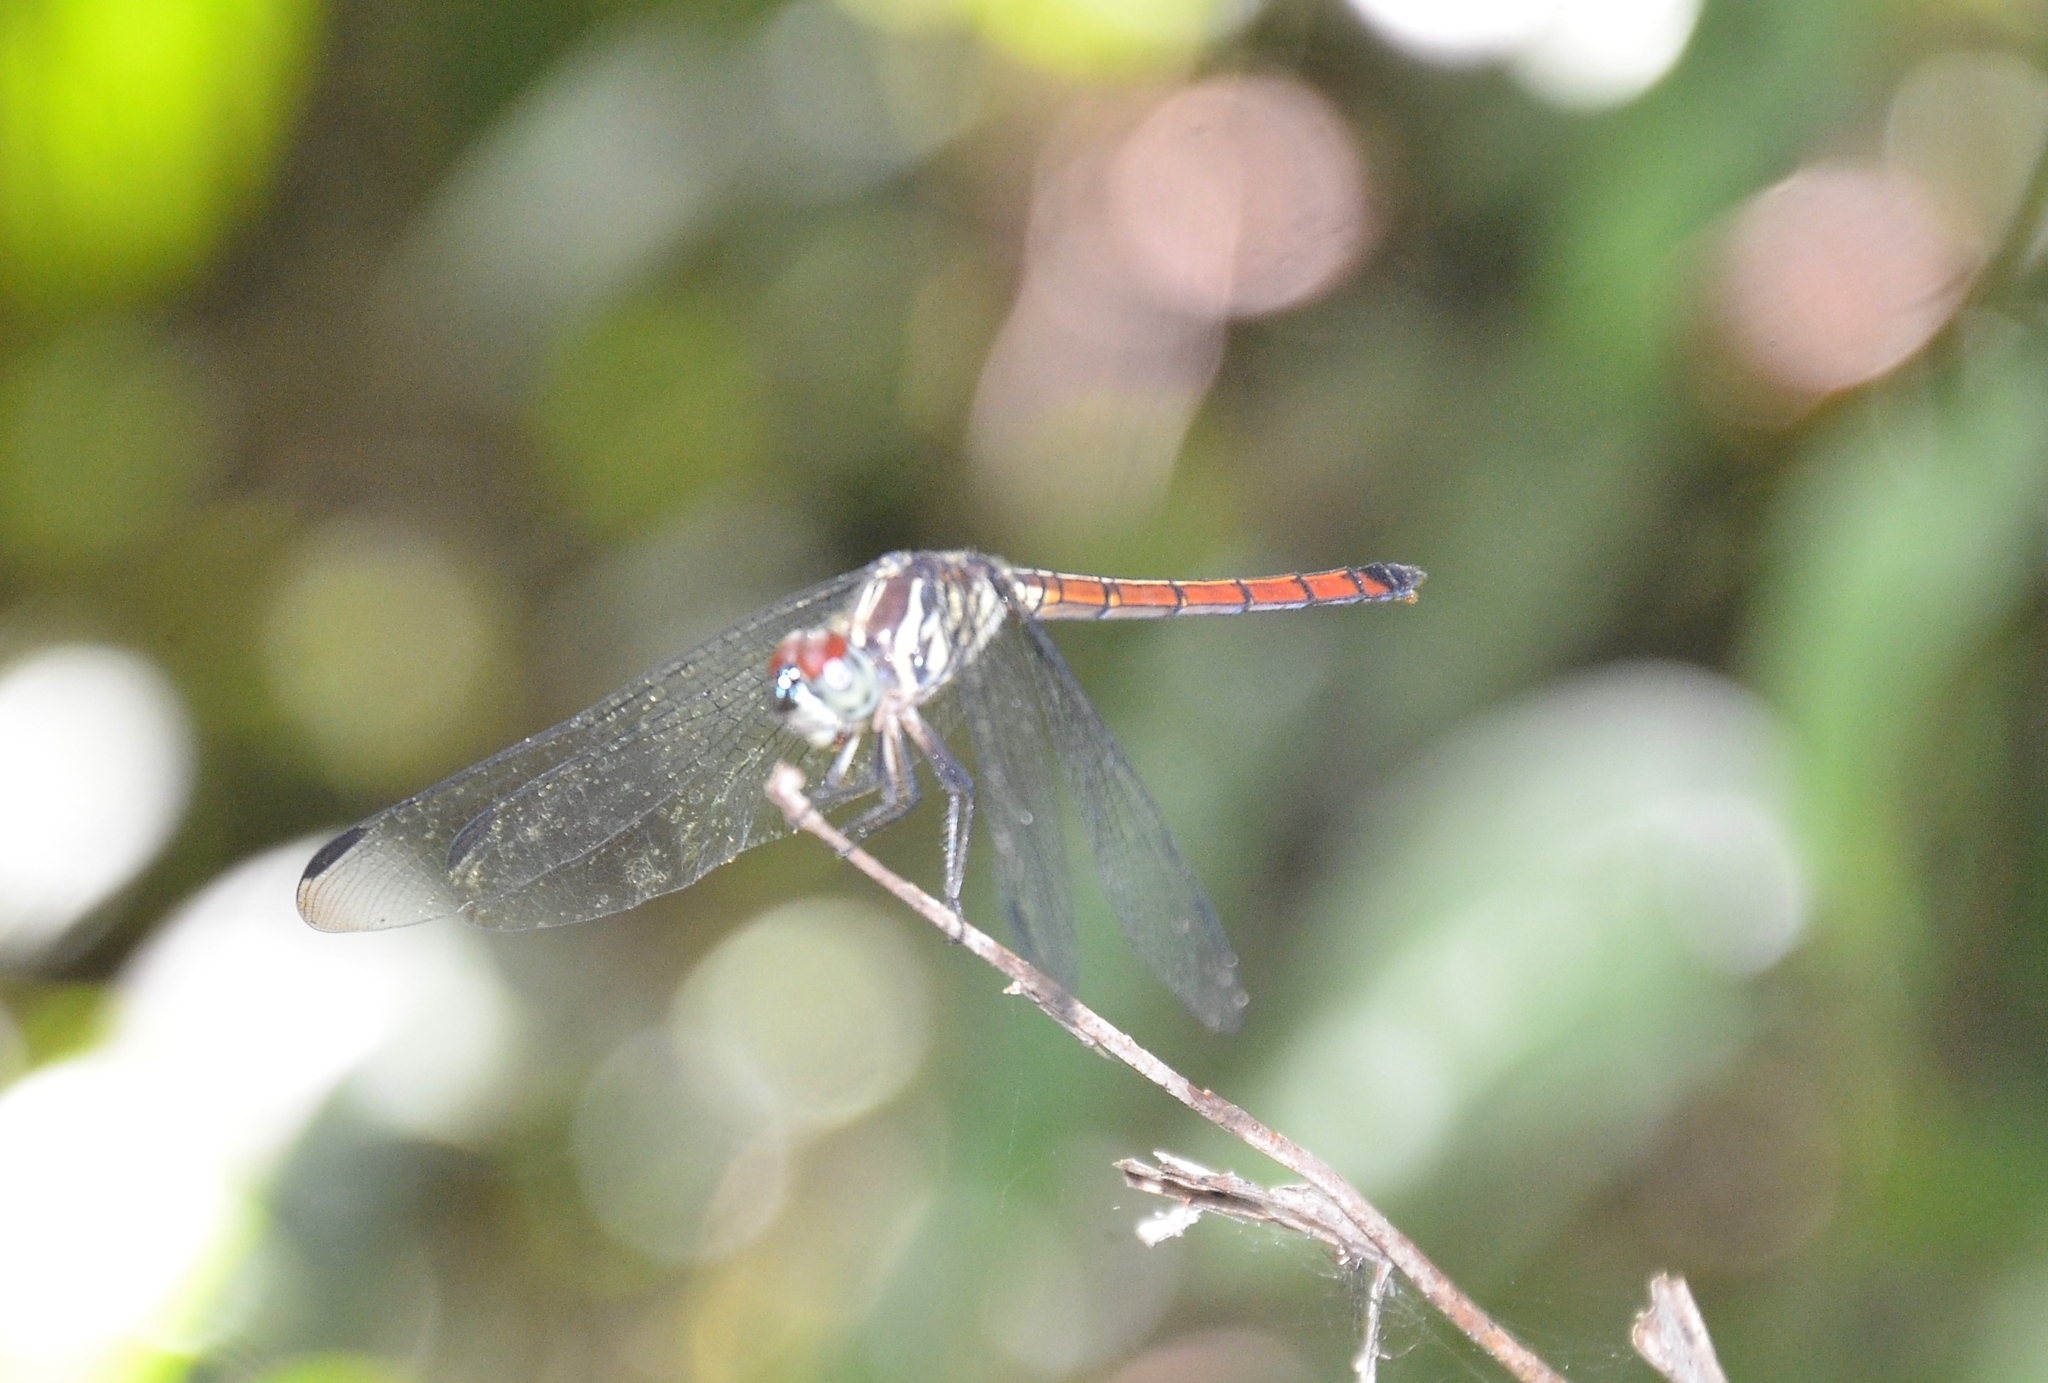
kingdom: Animalia
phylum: Arthropoda
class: Insecta
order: Odonata
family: Libellulidae
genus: Lathrecista
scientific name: Lathrecista asiatica
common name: Scarlet grenadier
